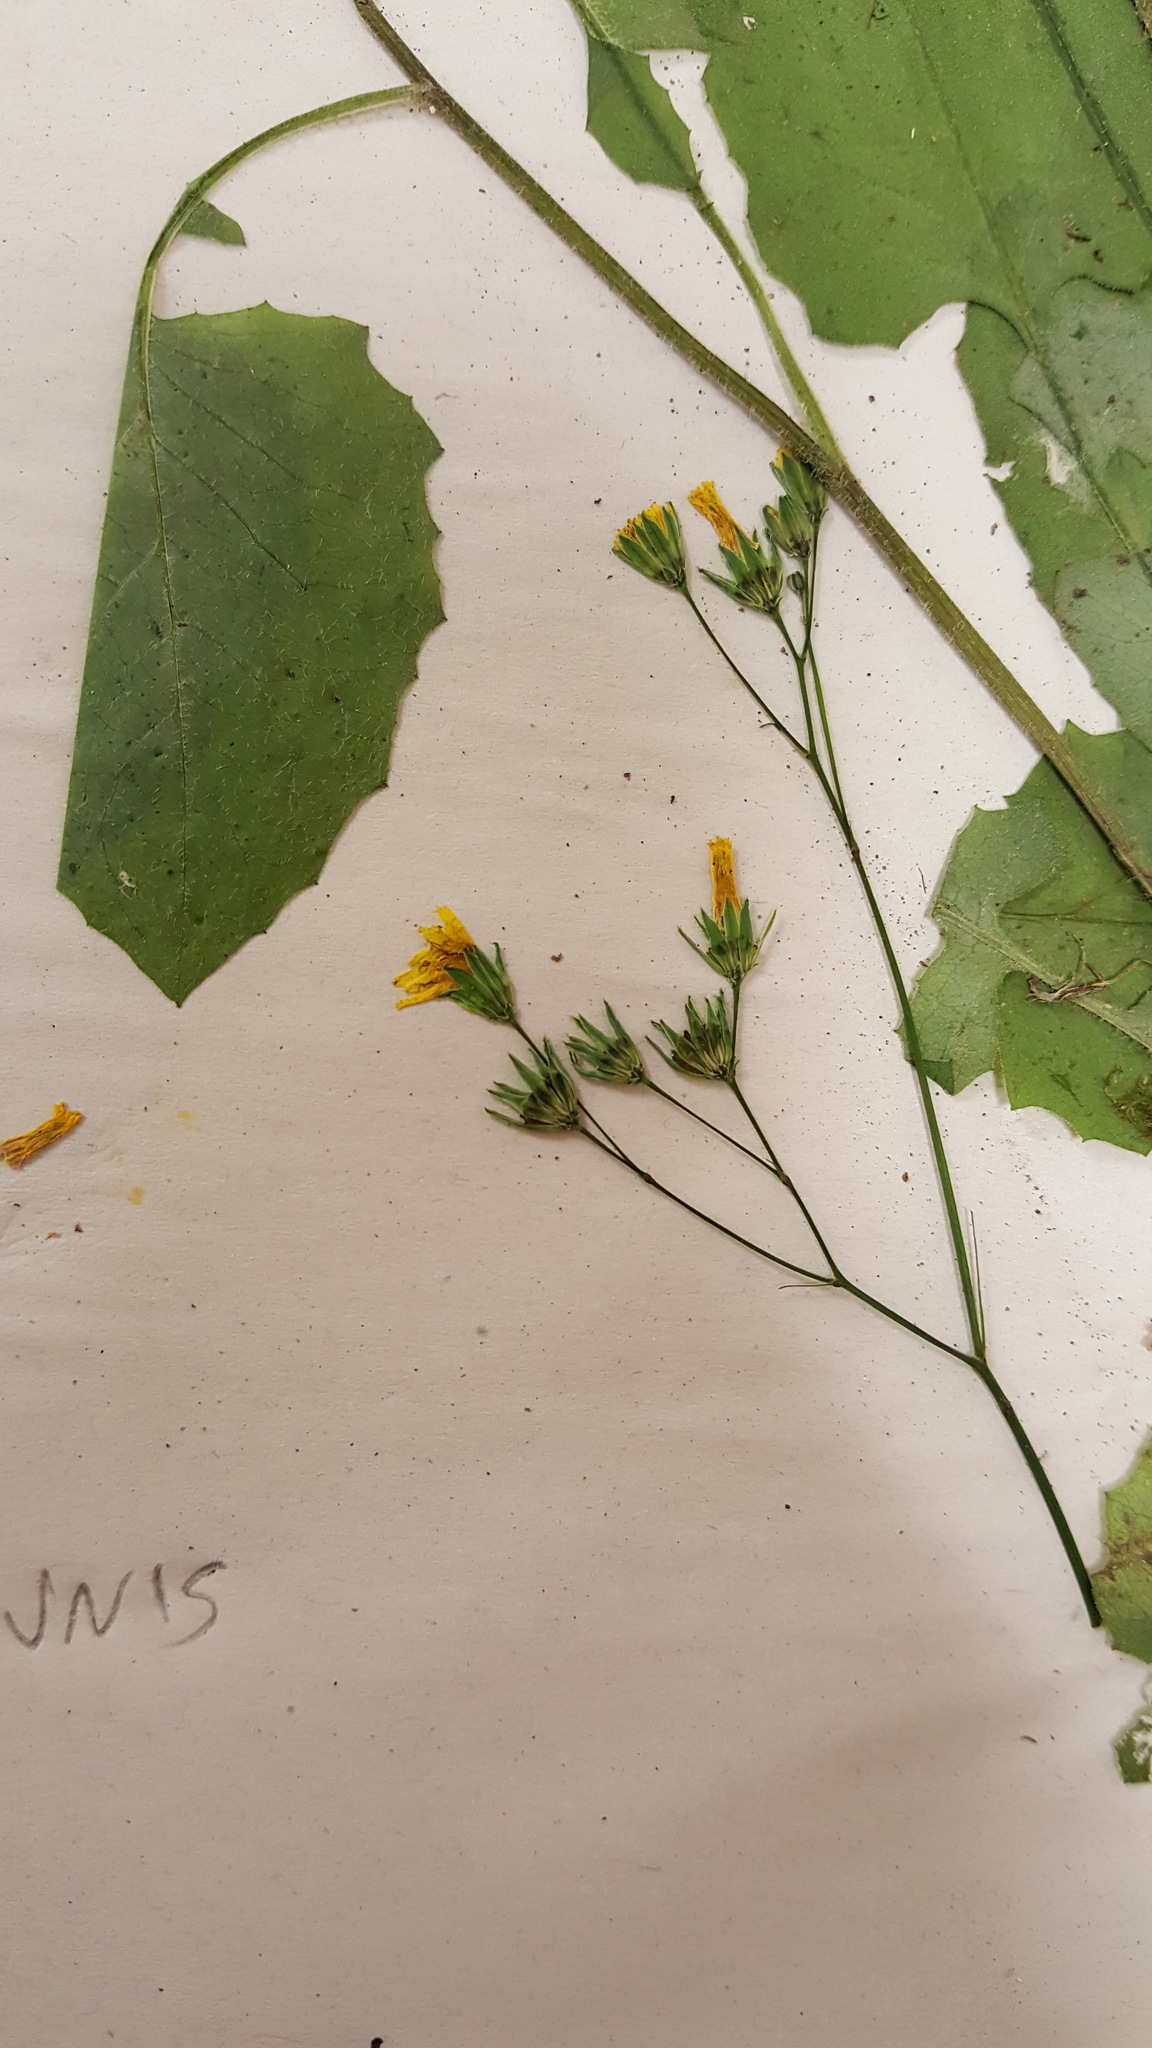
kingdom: Plantae
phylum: Tracheophyta
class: Magnoliopsida
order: Asterales
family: Asteraceae
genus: Lapsana
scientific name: Lapsana communis
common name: Nipplewort
